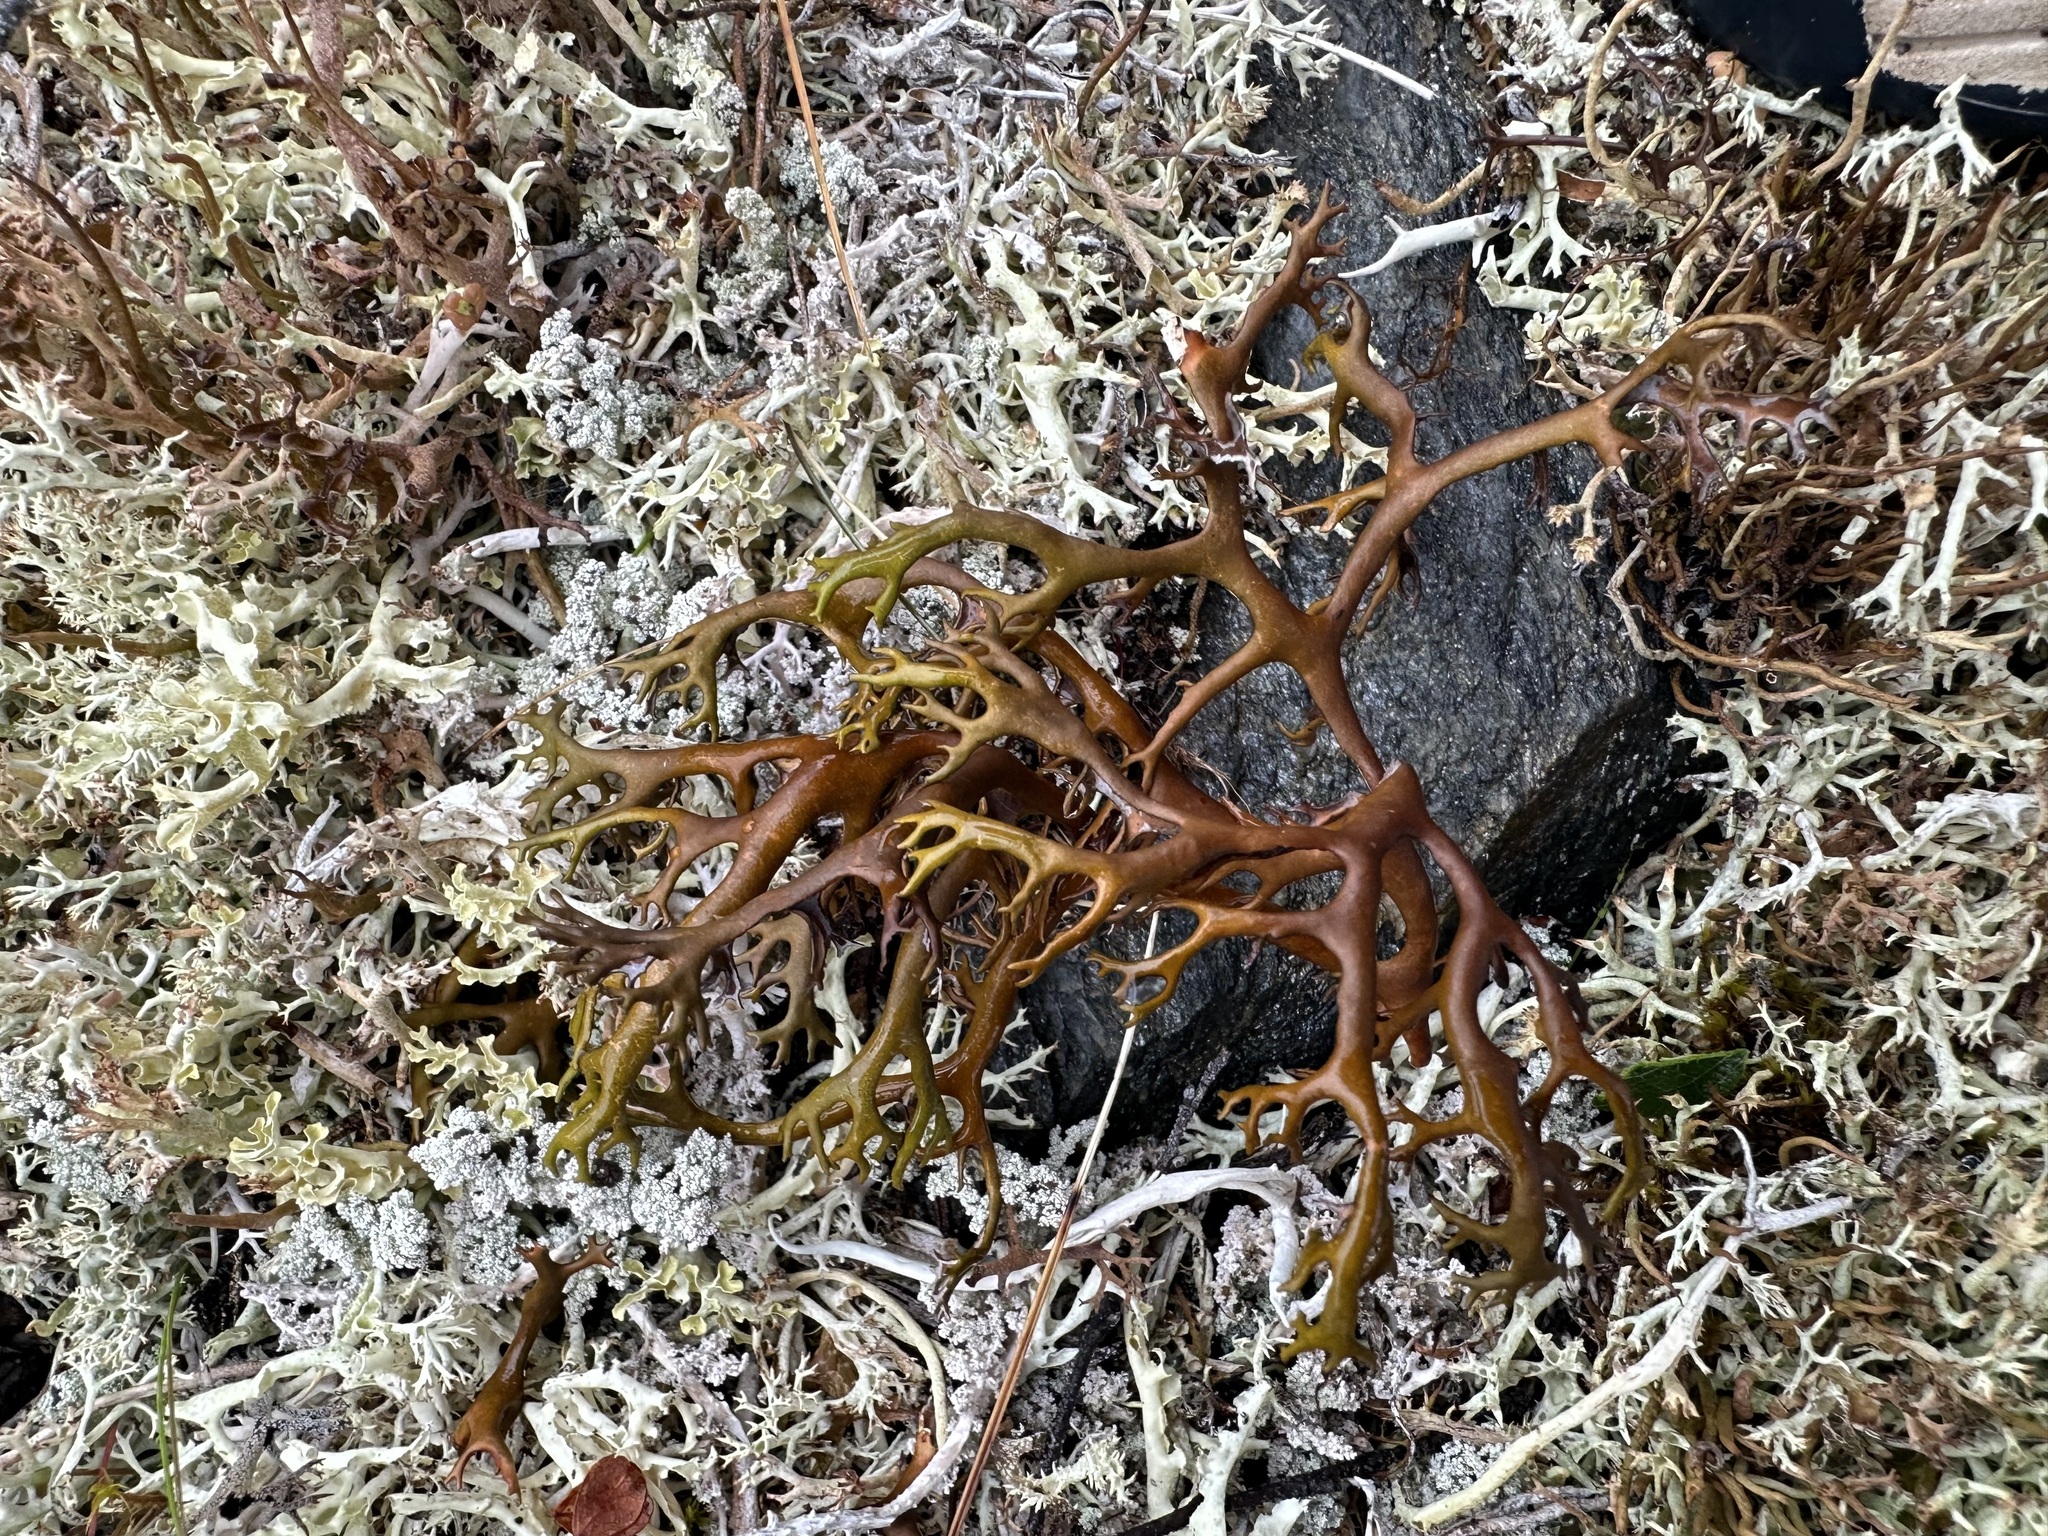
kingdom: Fungi
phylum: Ascomycota
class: Lecanoromycetes
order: Lecanorales
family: Parmeliaceae
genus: Nephromopsis
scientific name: Nephromopsis richardsonii
